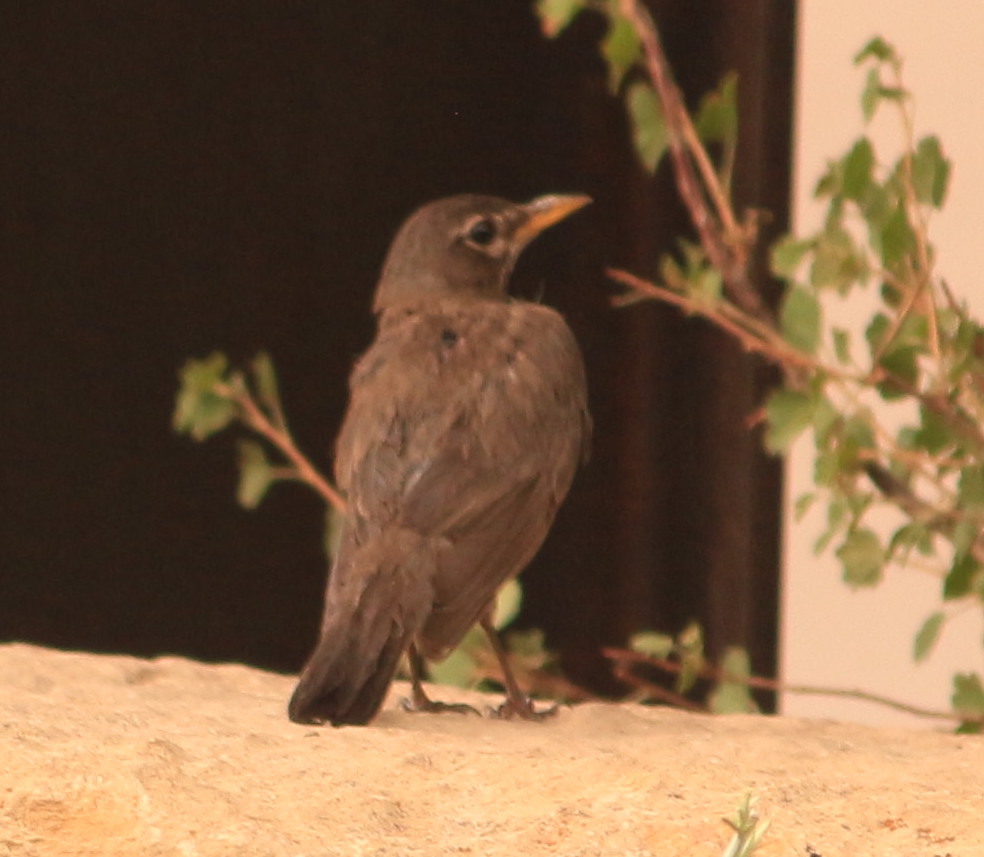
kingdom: Animalia
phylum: Chordata
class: Aves
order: Passeriformes
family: Turdidae
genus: Turdus
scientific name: Turdus migratorius
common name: American robin
